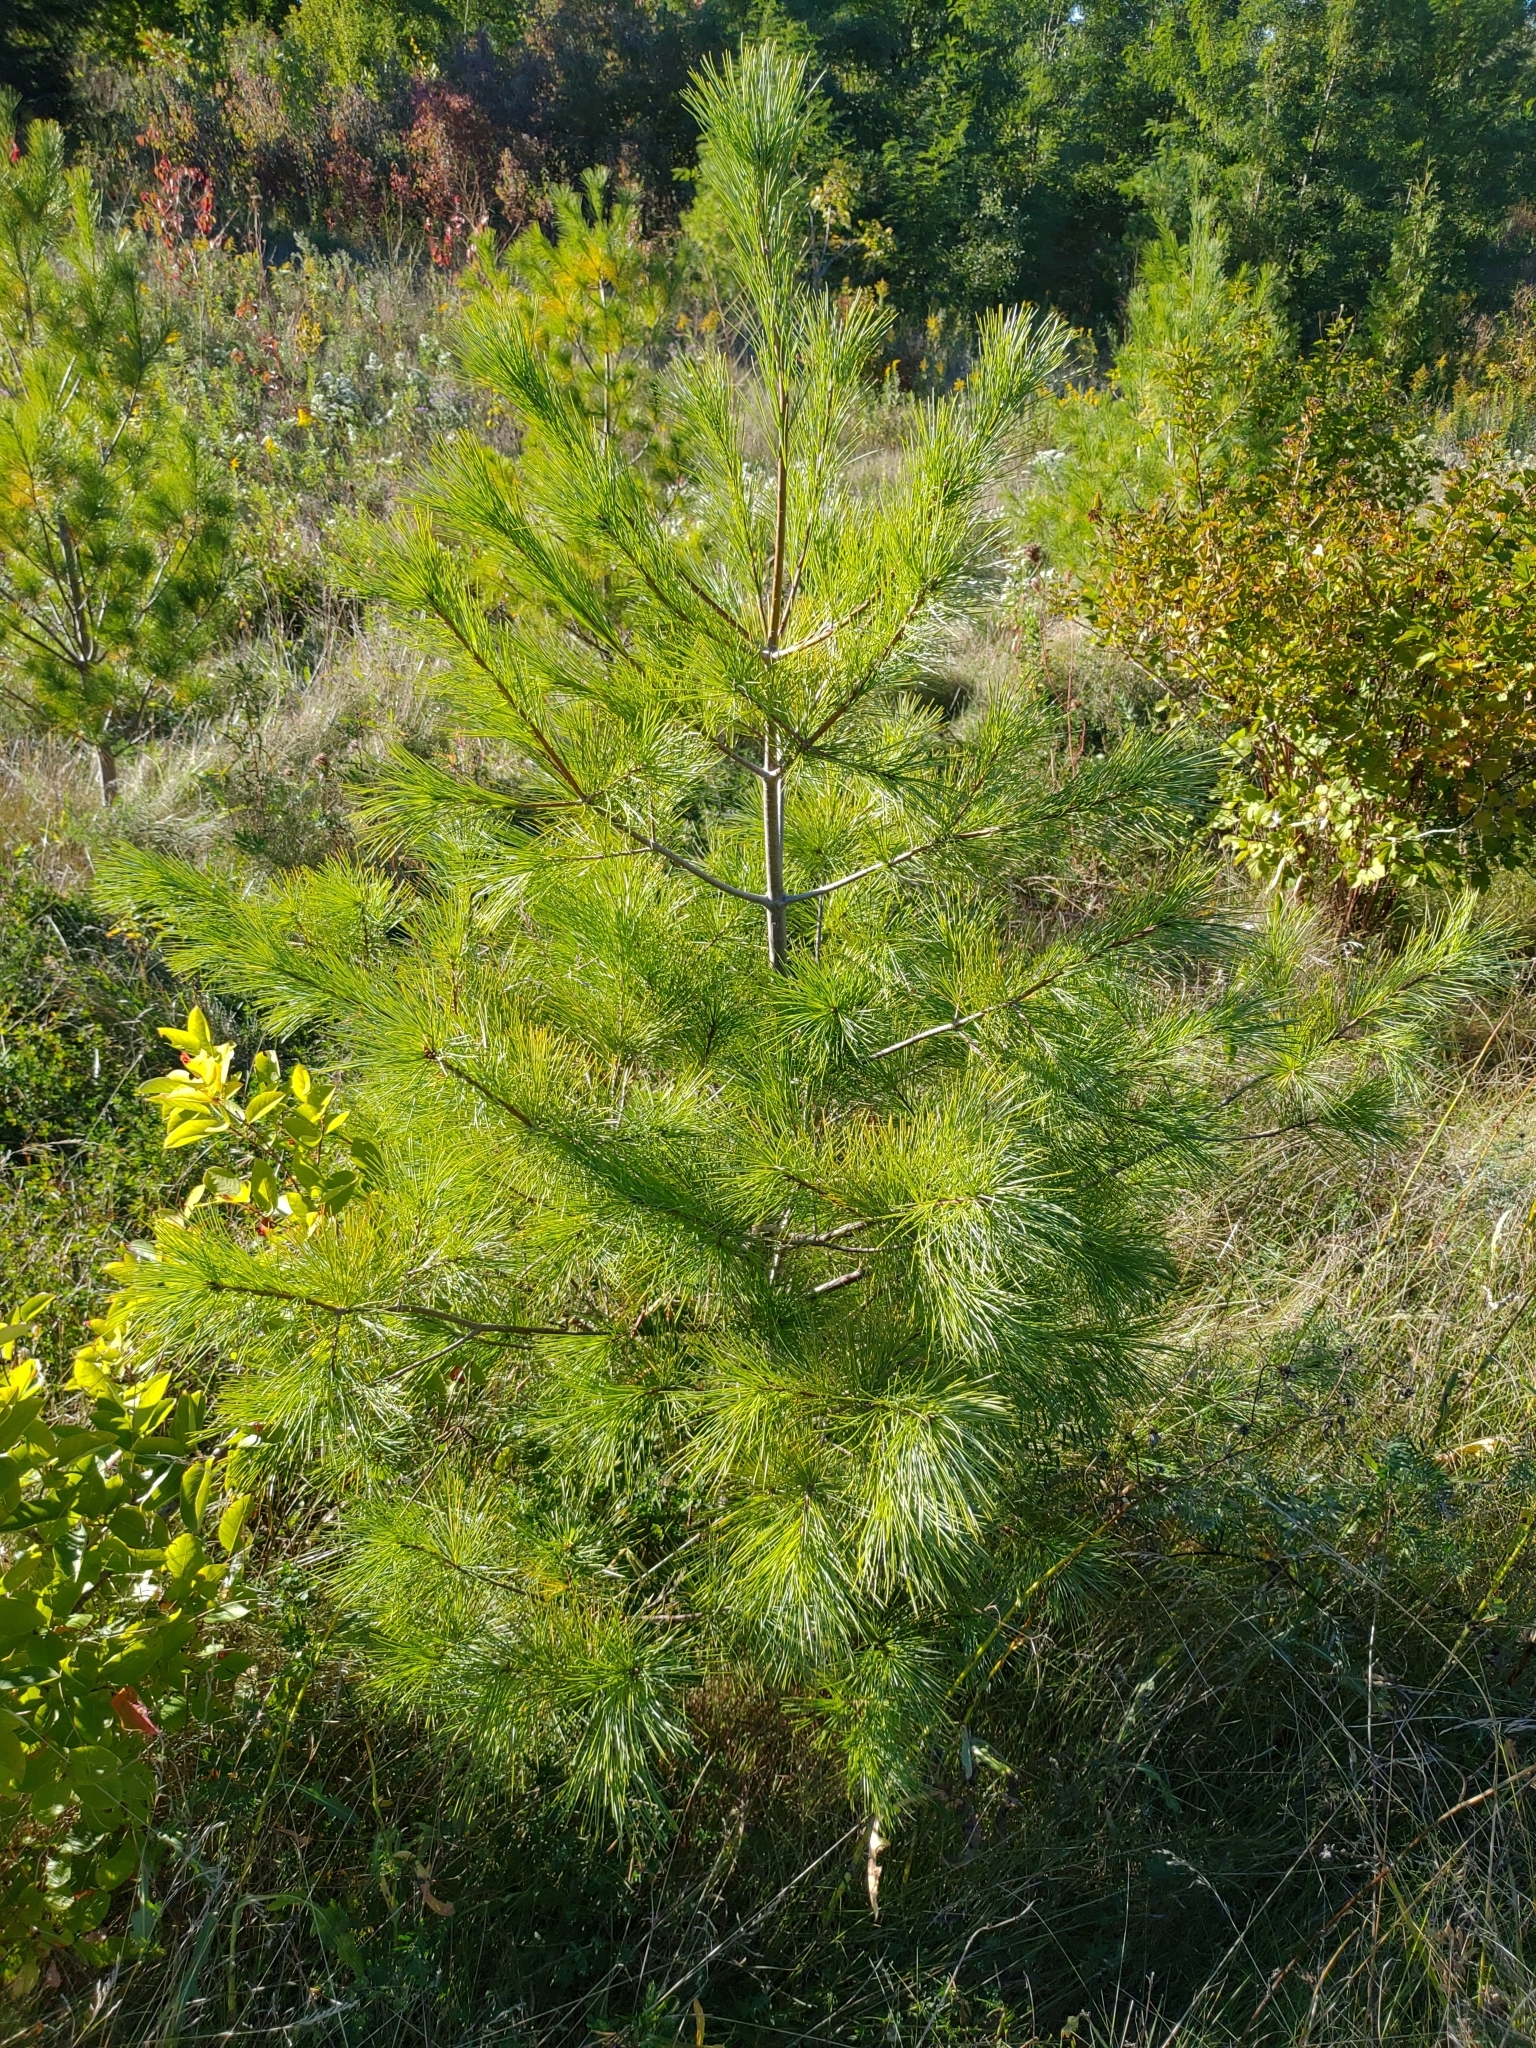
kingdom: Plantae
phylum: Tracheophyta
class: Pinopsida
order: Pinales
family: Pinaceae
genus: Pinus
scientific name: Pinus strobus
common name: Weymouth pine
